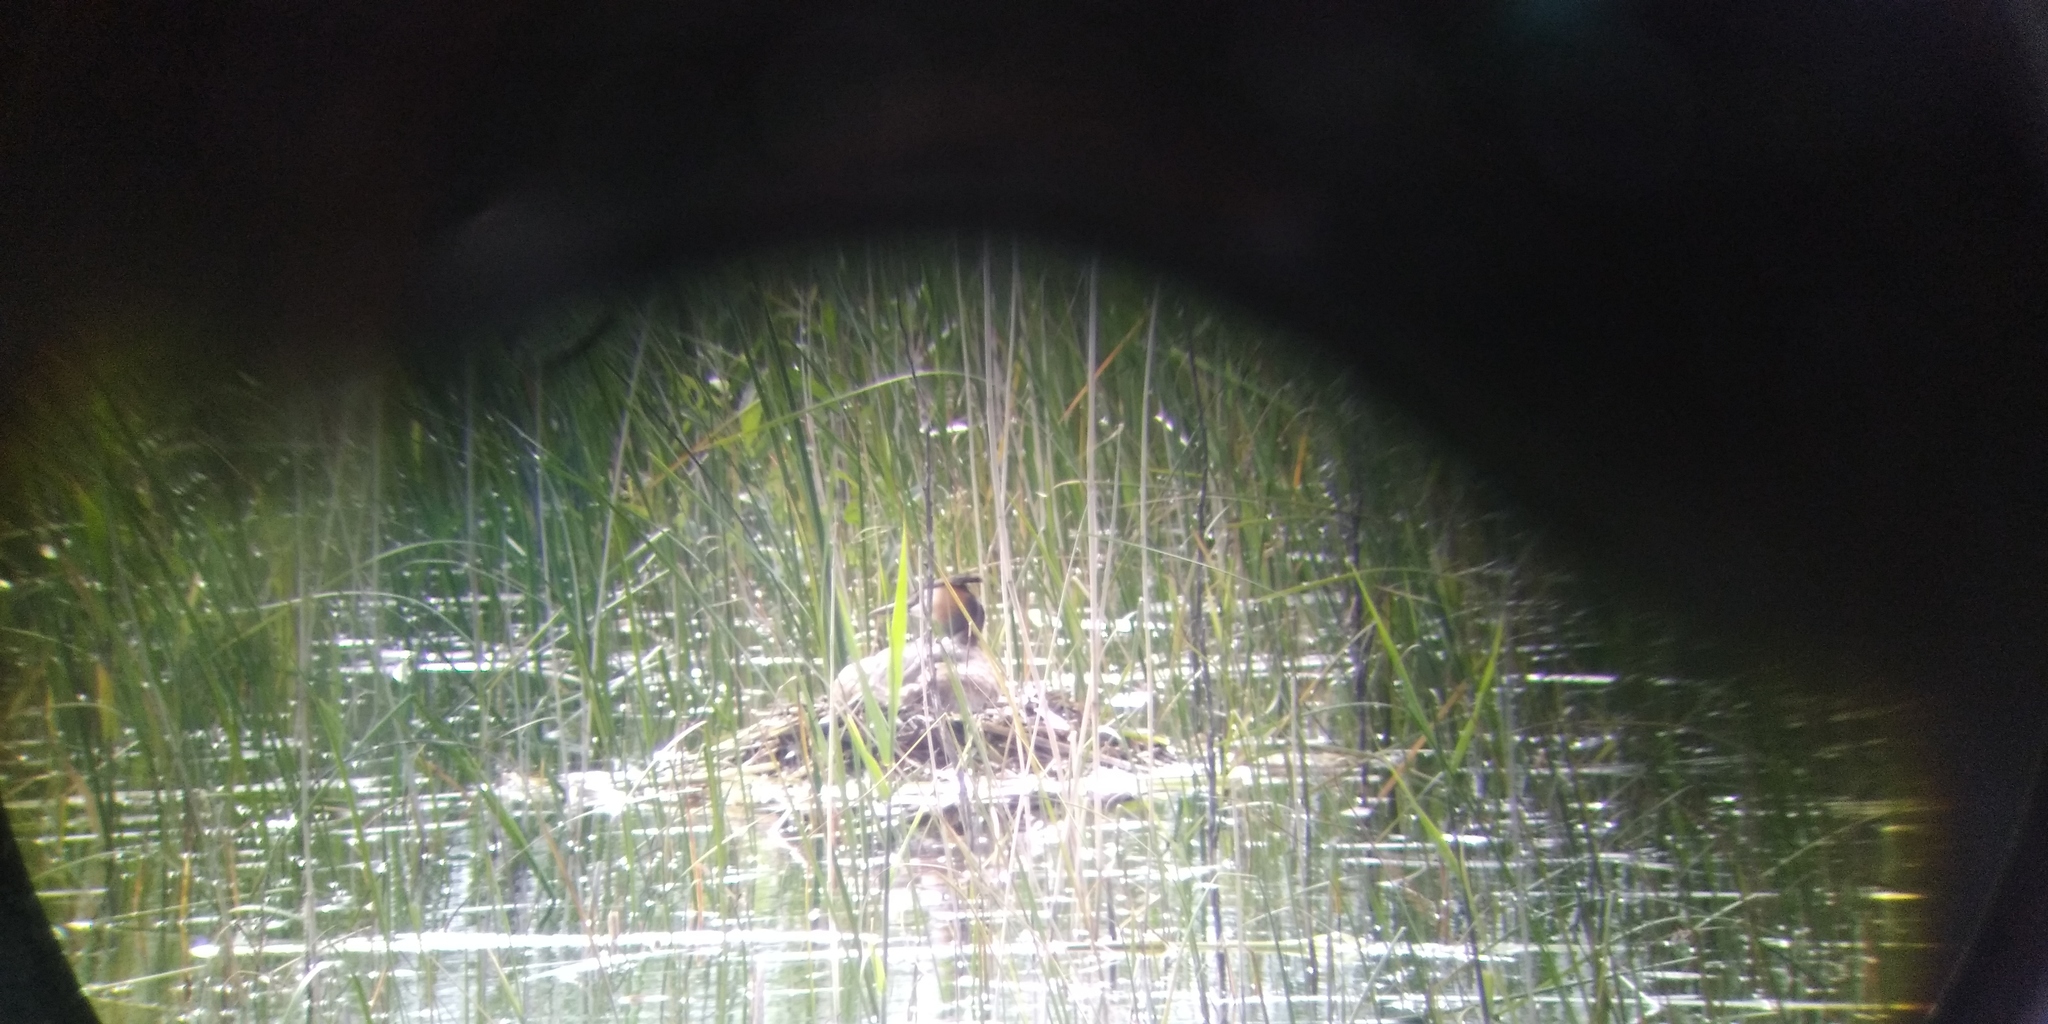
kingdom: Animalia
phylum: Chordata
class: Aves
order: Podicipediformes
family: Podicipedidae
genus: Podiceps
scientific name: Podiceps cristatus
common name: Great crested grebe
